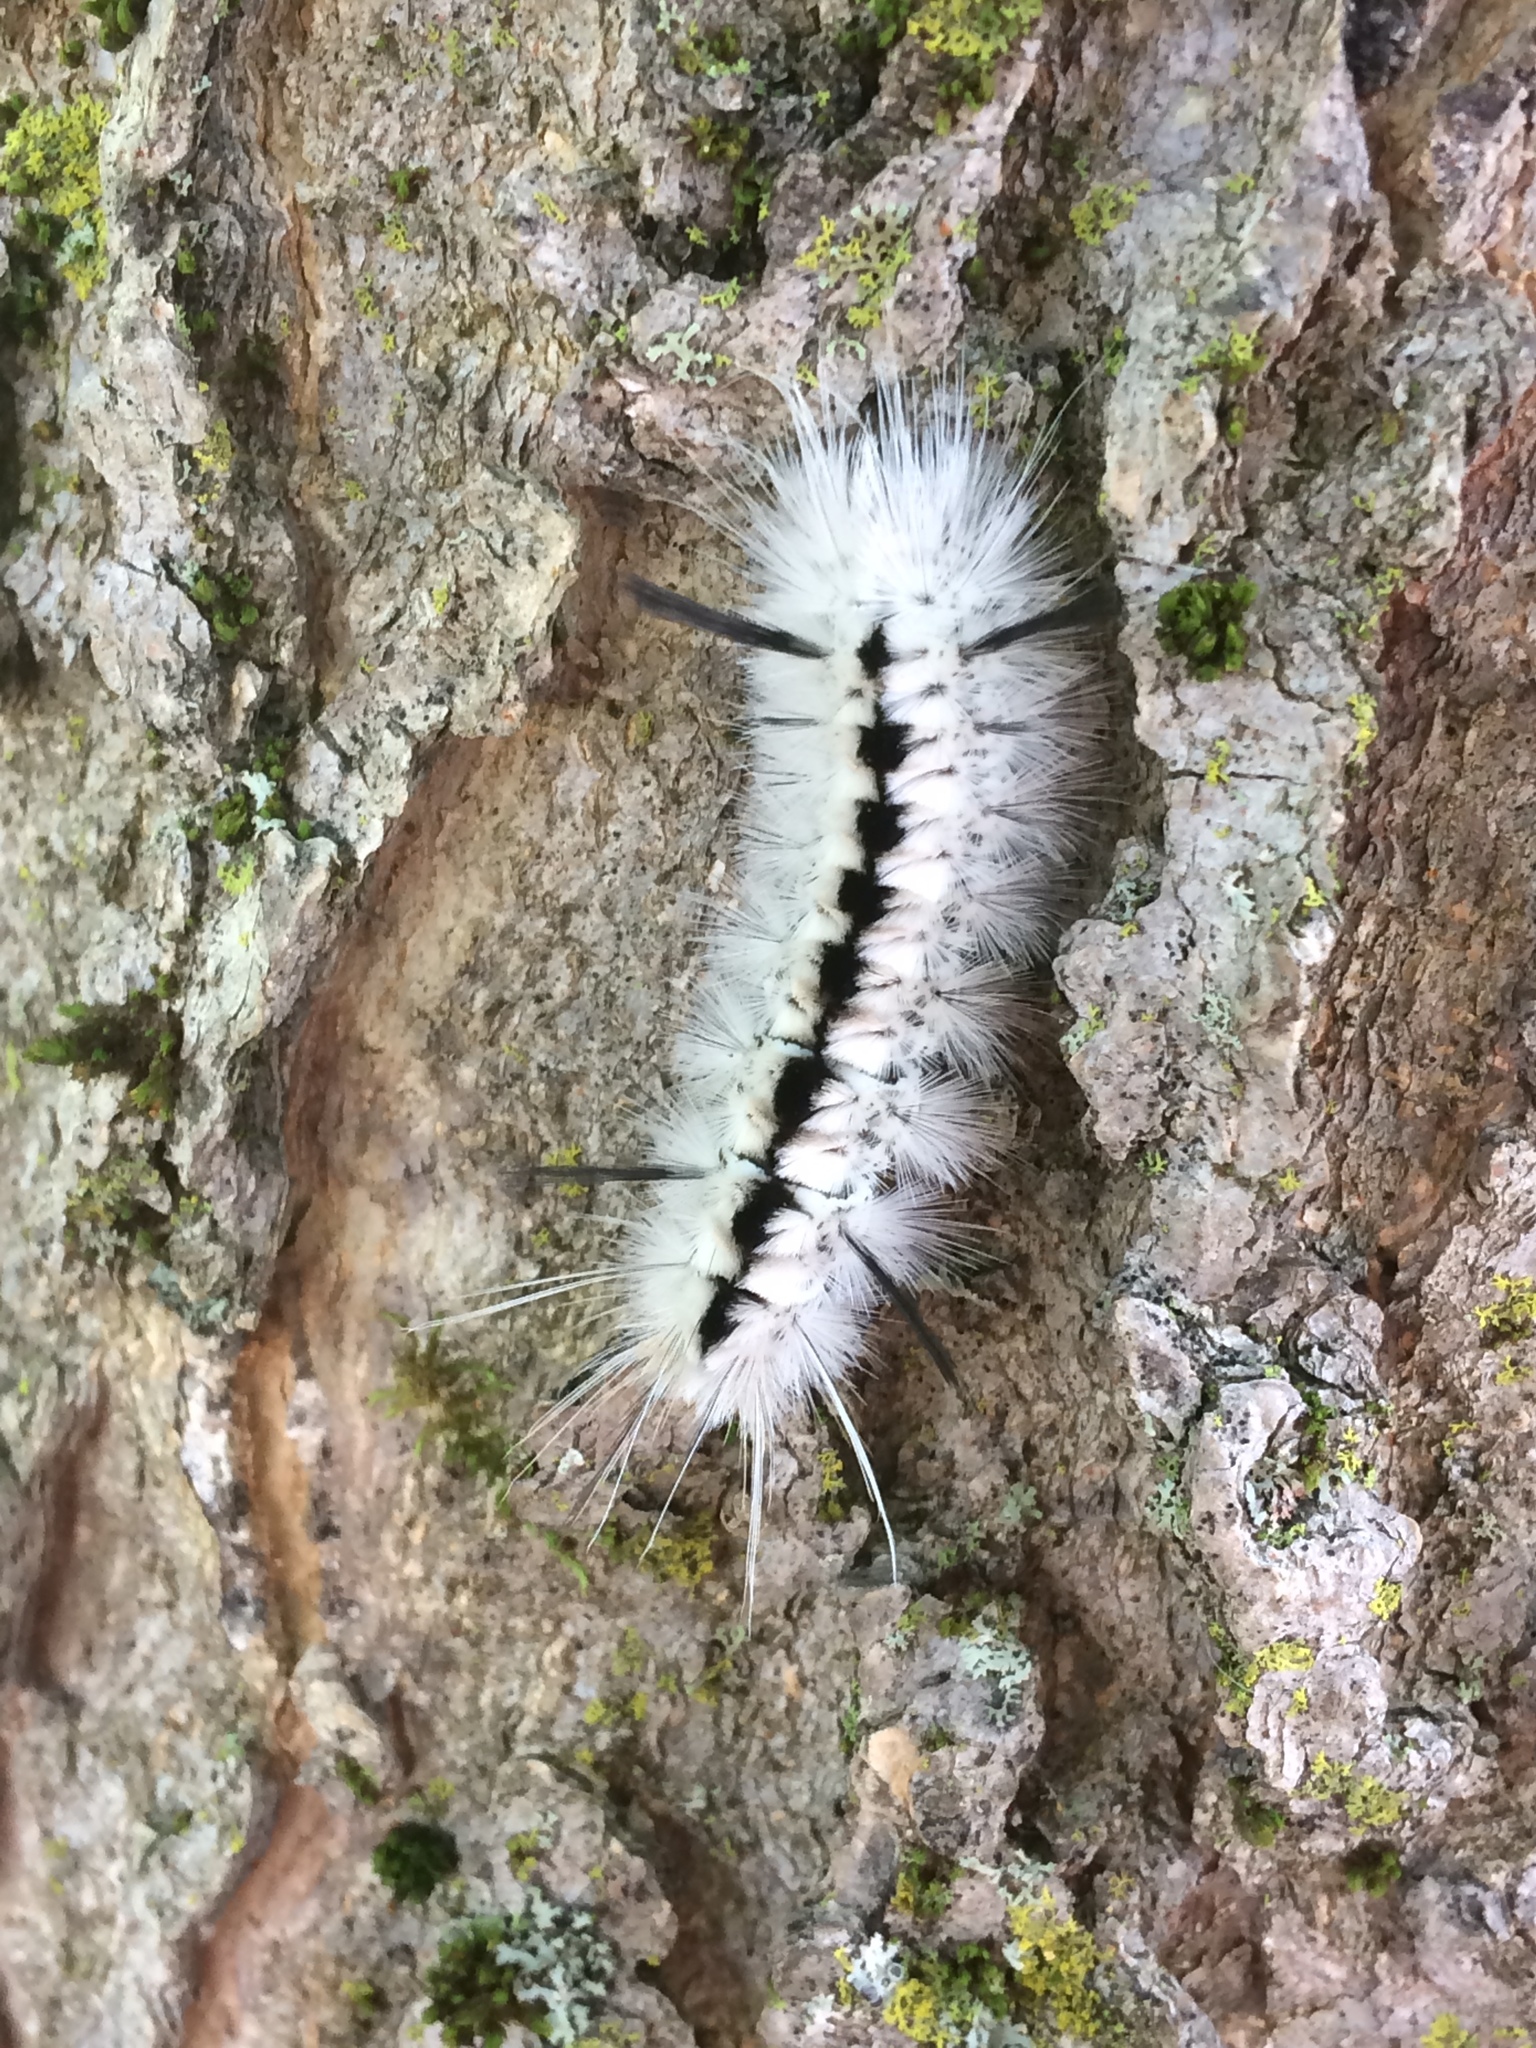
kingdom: Animalia
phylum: Arthropoda
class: Insecta
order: Lepidoptera
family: Erebidae
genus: Lophocampa
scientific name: Lophocampa caryae
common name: Hickory tussock moth
